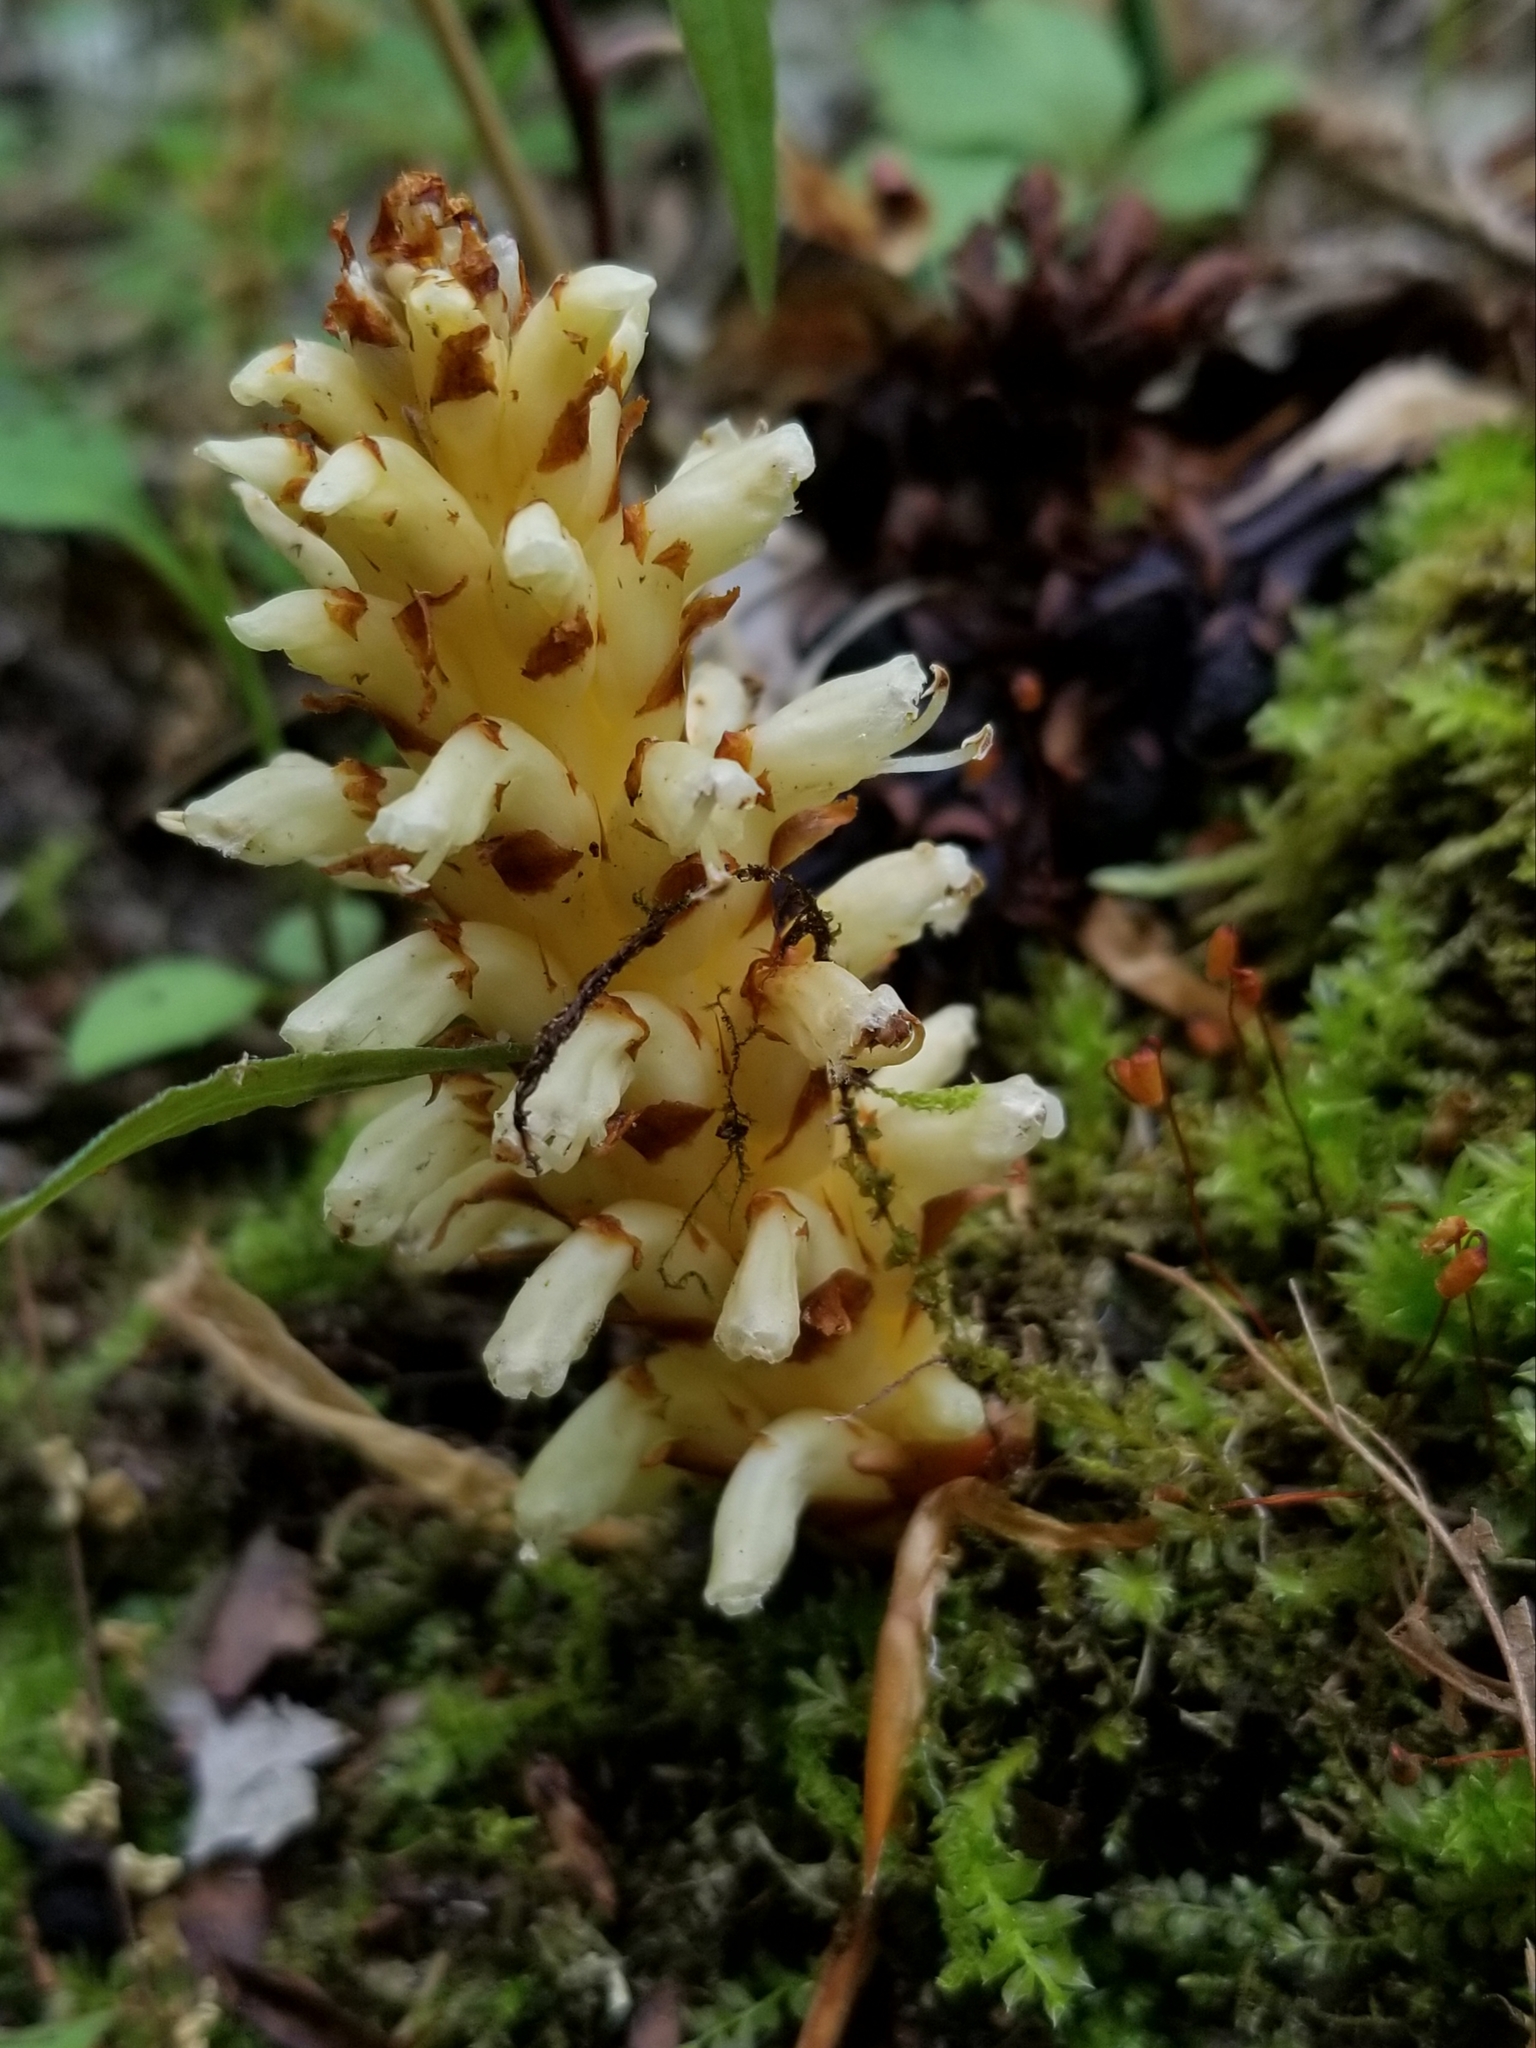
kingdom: Plantae
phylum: Tracheophyta
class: Magnoliopsida
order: Lamiales
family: Orobanchaceae
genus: Conopholis
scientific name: Conopholis americana
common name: American cancer-root
